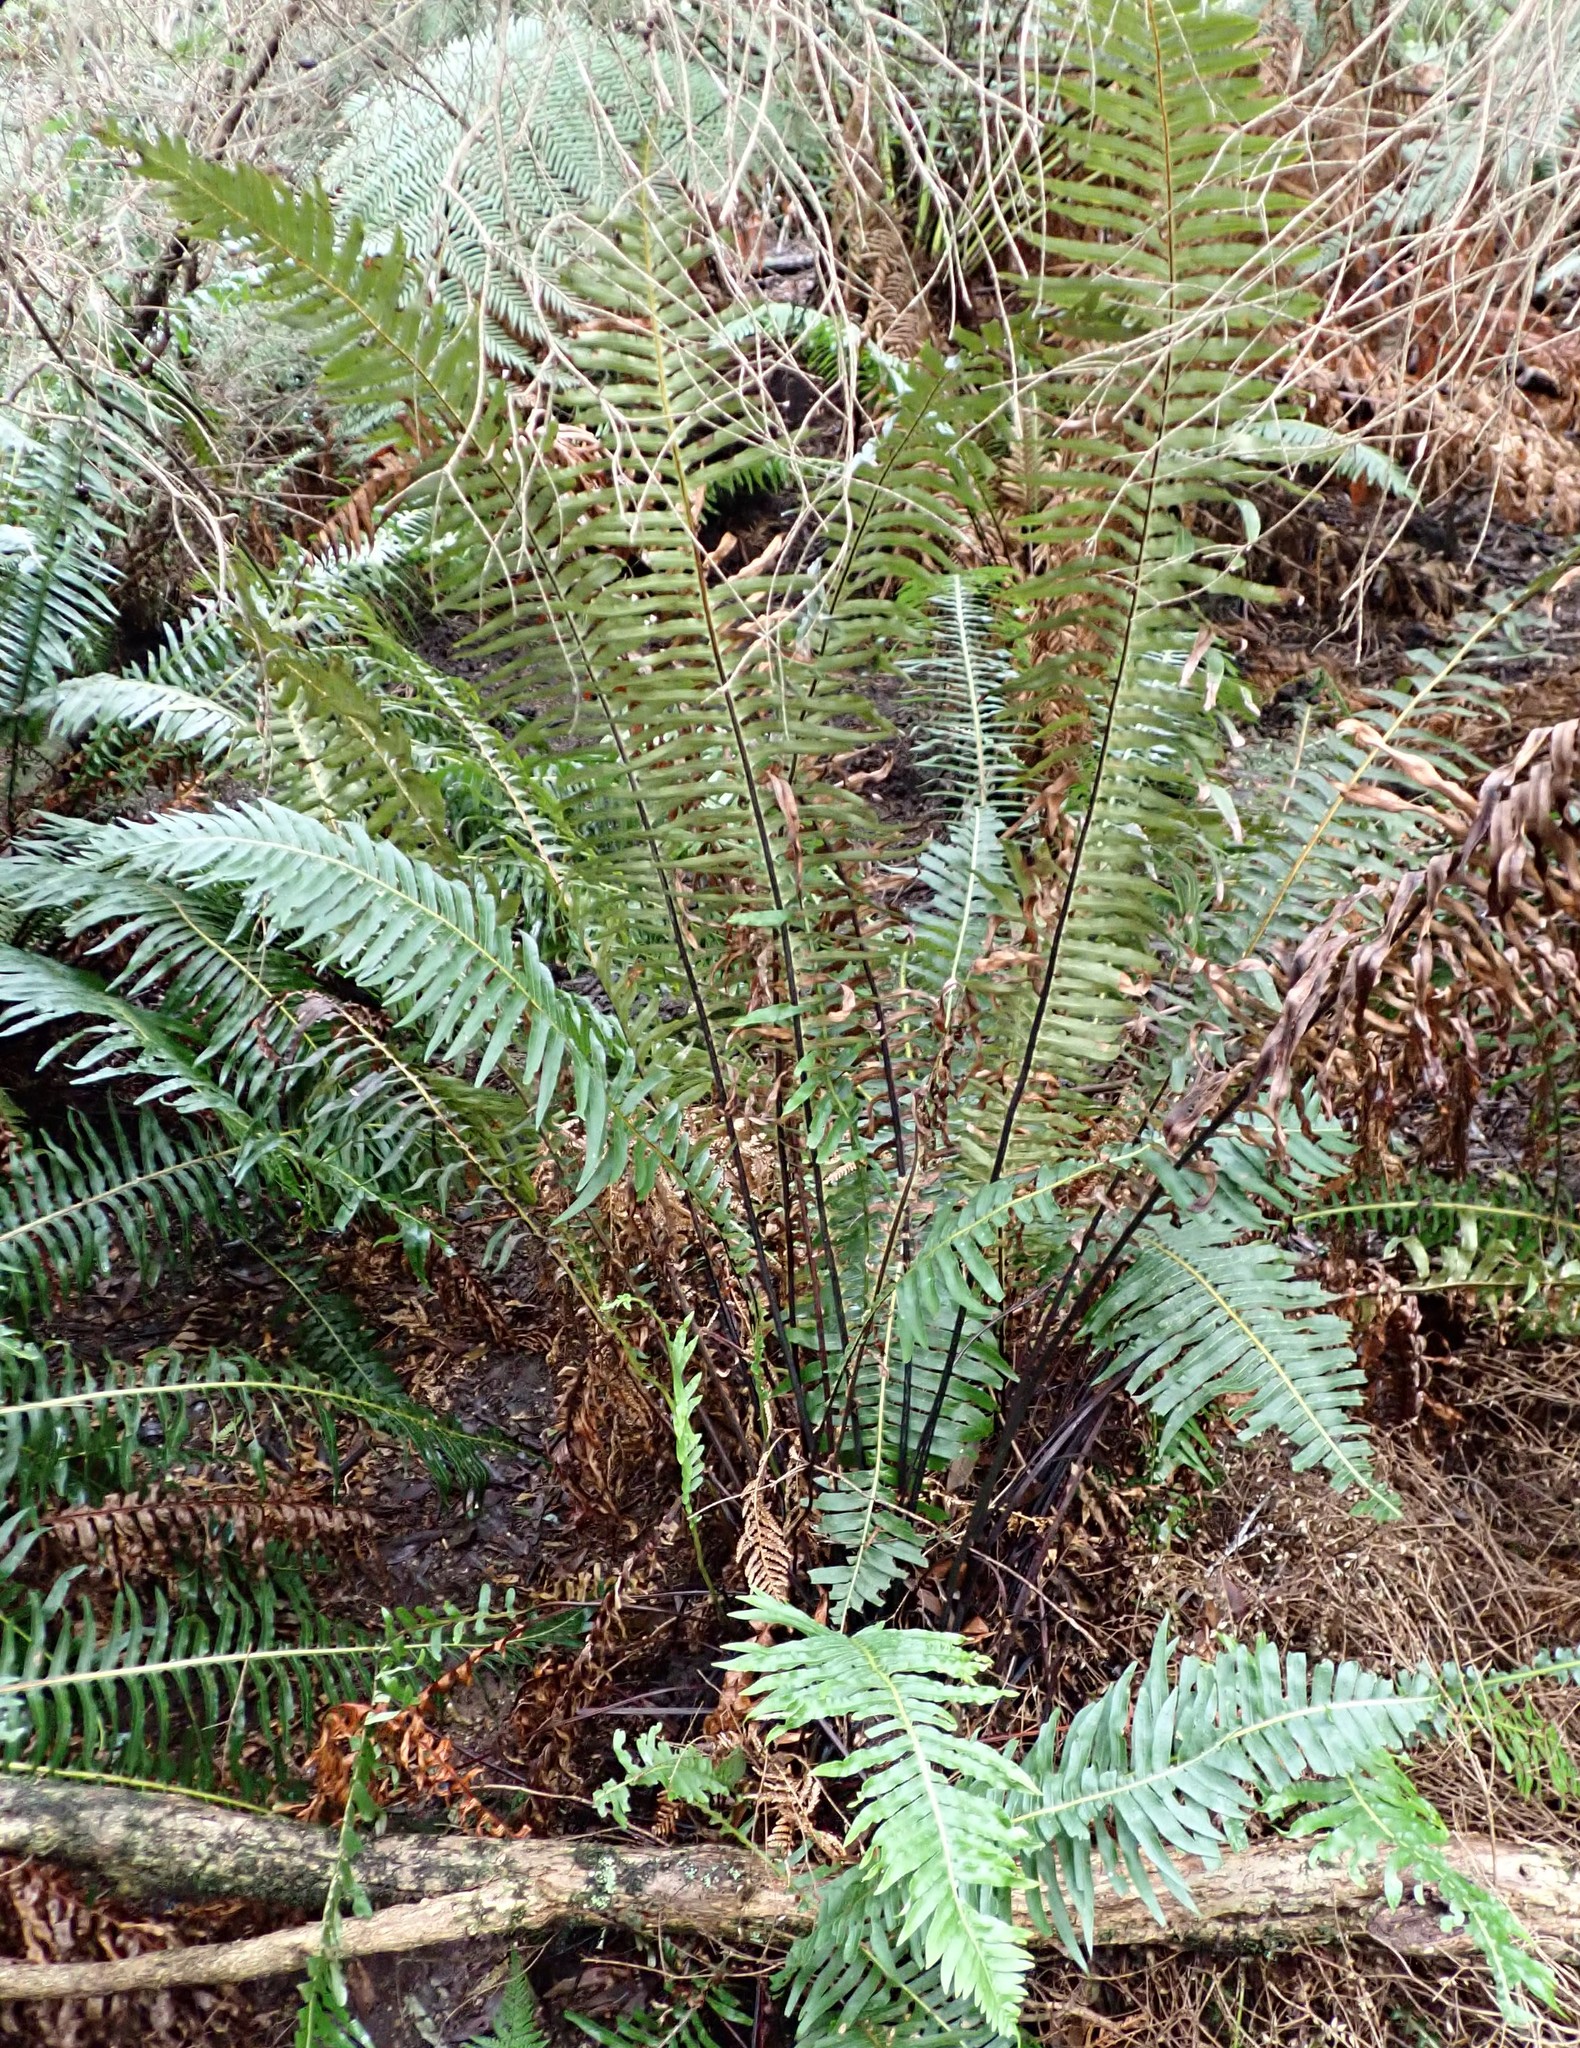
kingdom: Plantae
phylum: Tracheophyta
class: Polypodiopsida
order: Polypodiales
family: Blechnaceae
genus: Lomaria
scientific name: Lomaria nuda
